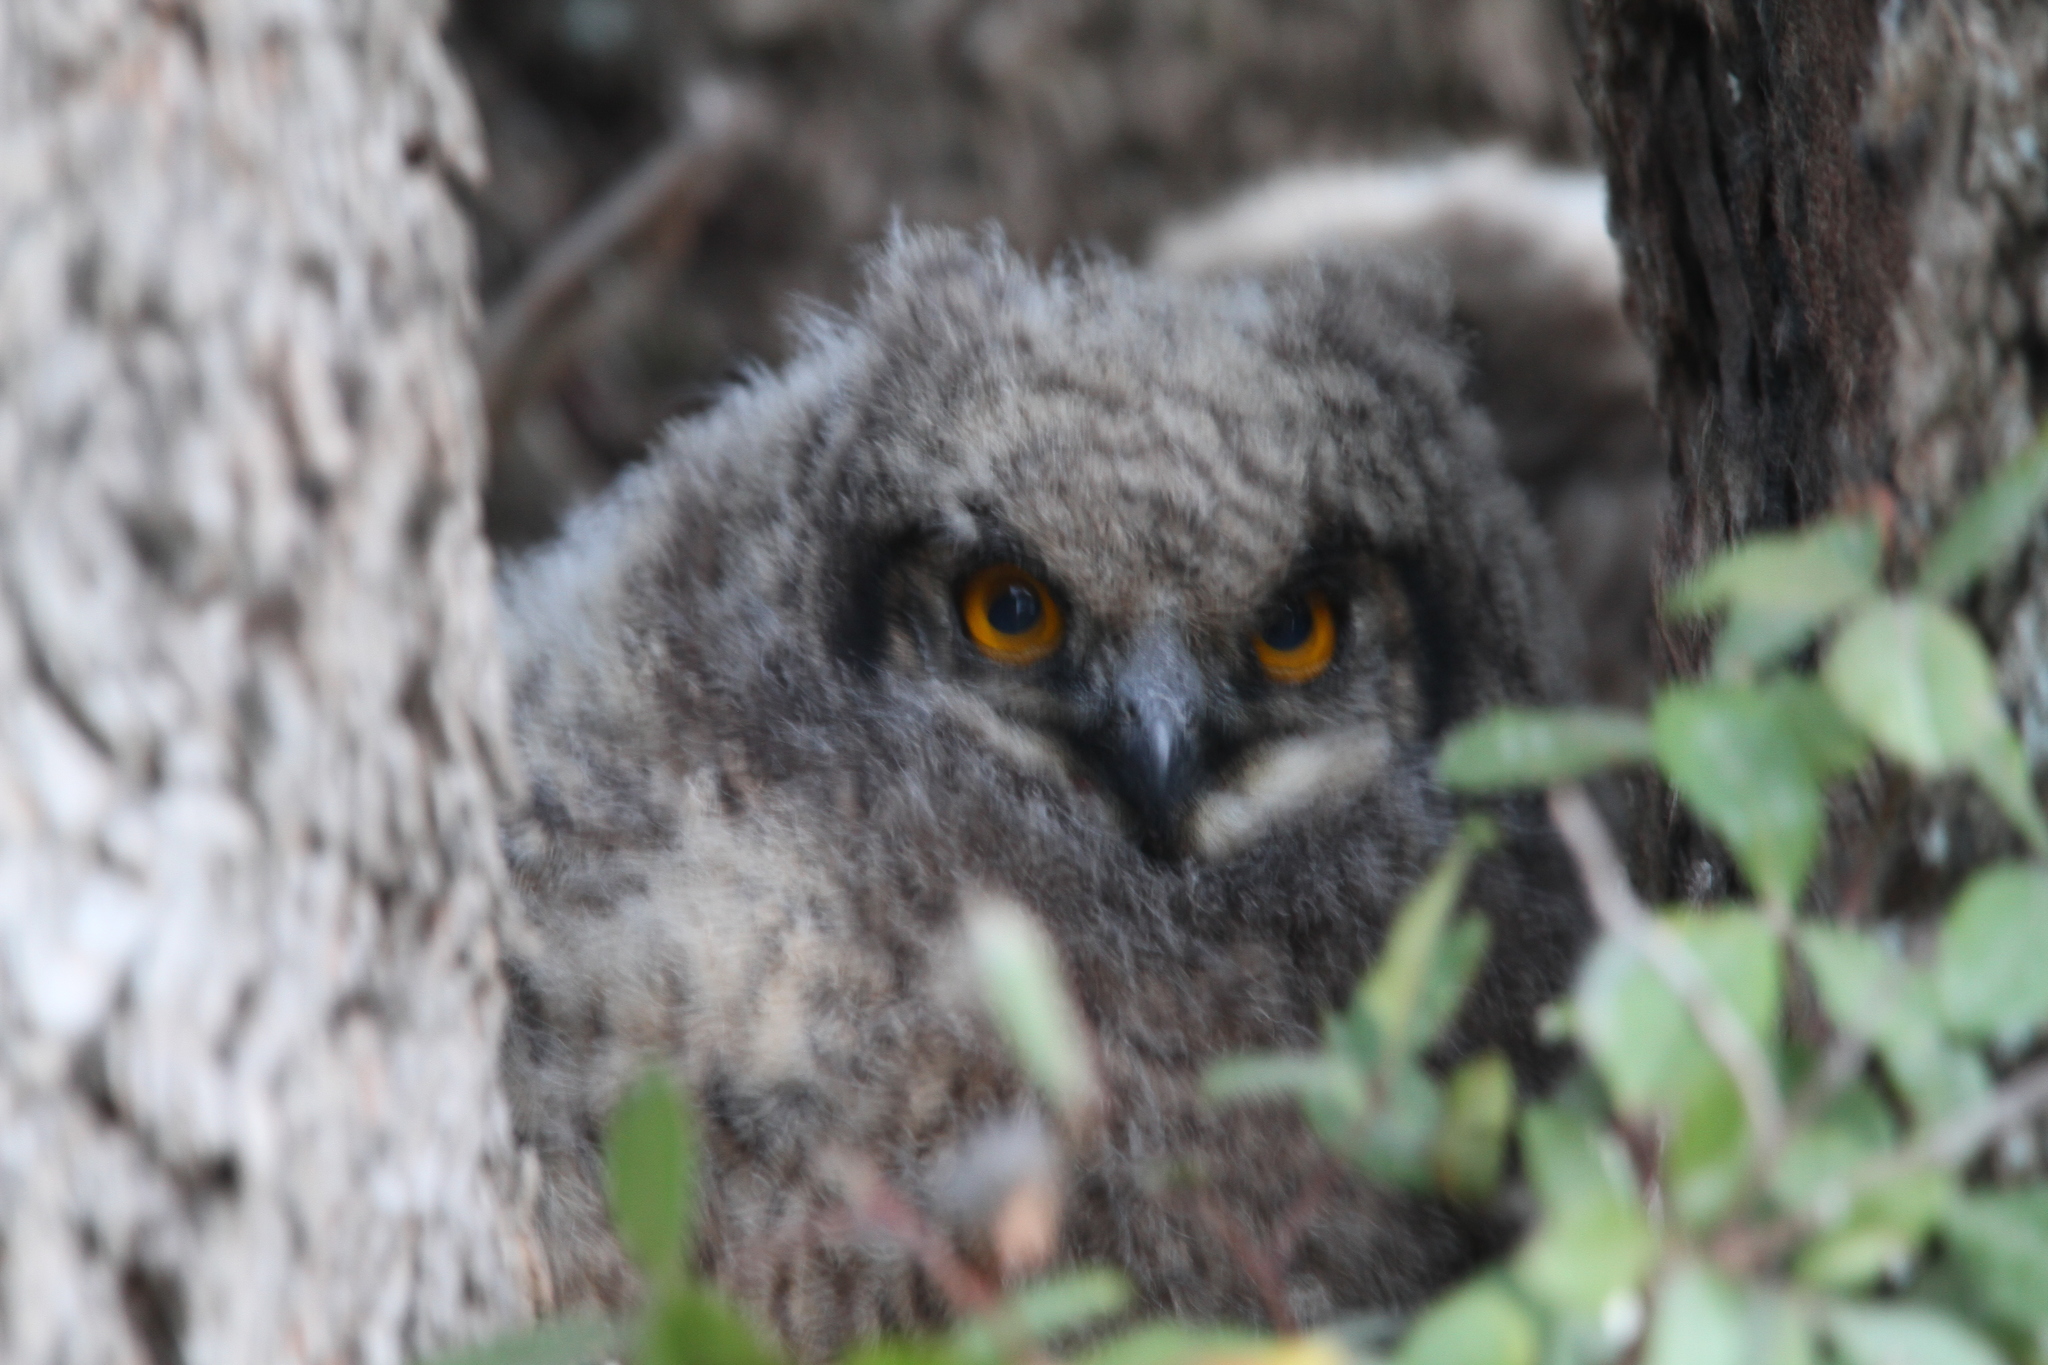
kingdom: Animalia
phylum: Chordata
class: Aves
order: Strigiformes
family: Strigidae
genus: Bubo
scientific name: Bubo africanus
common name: Spotted eagle-owl
